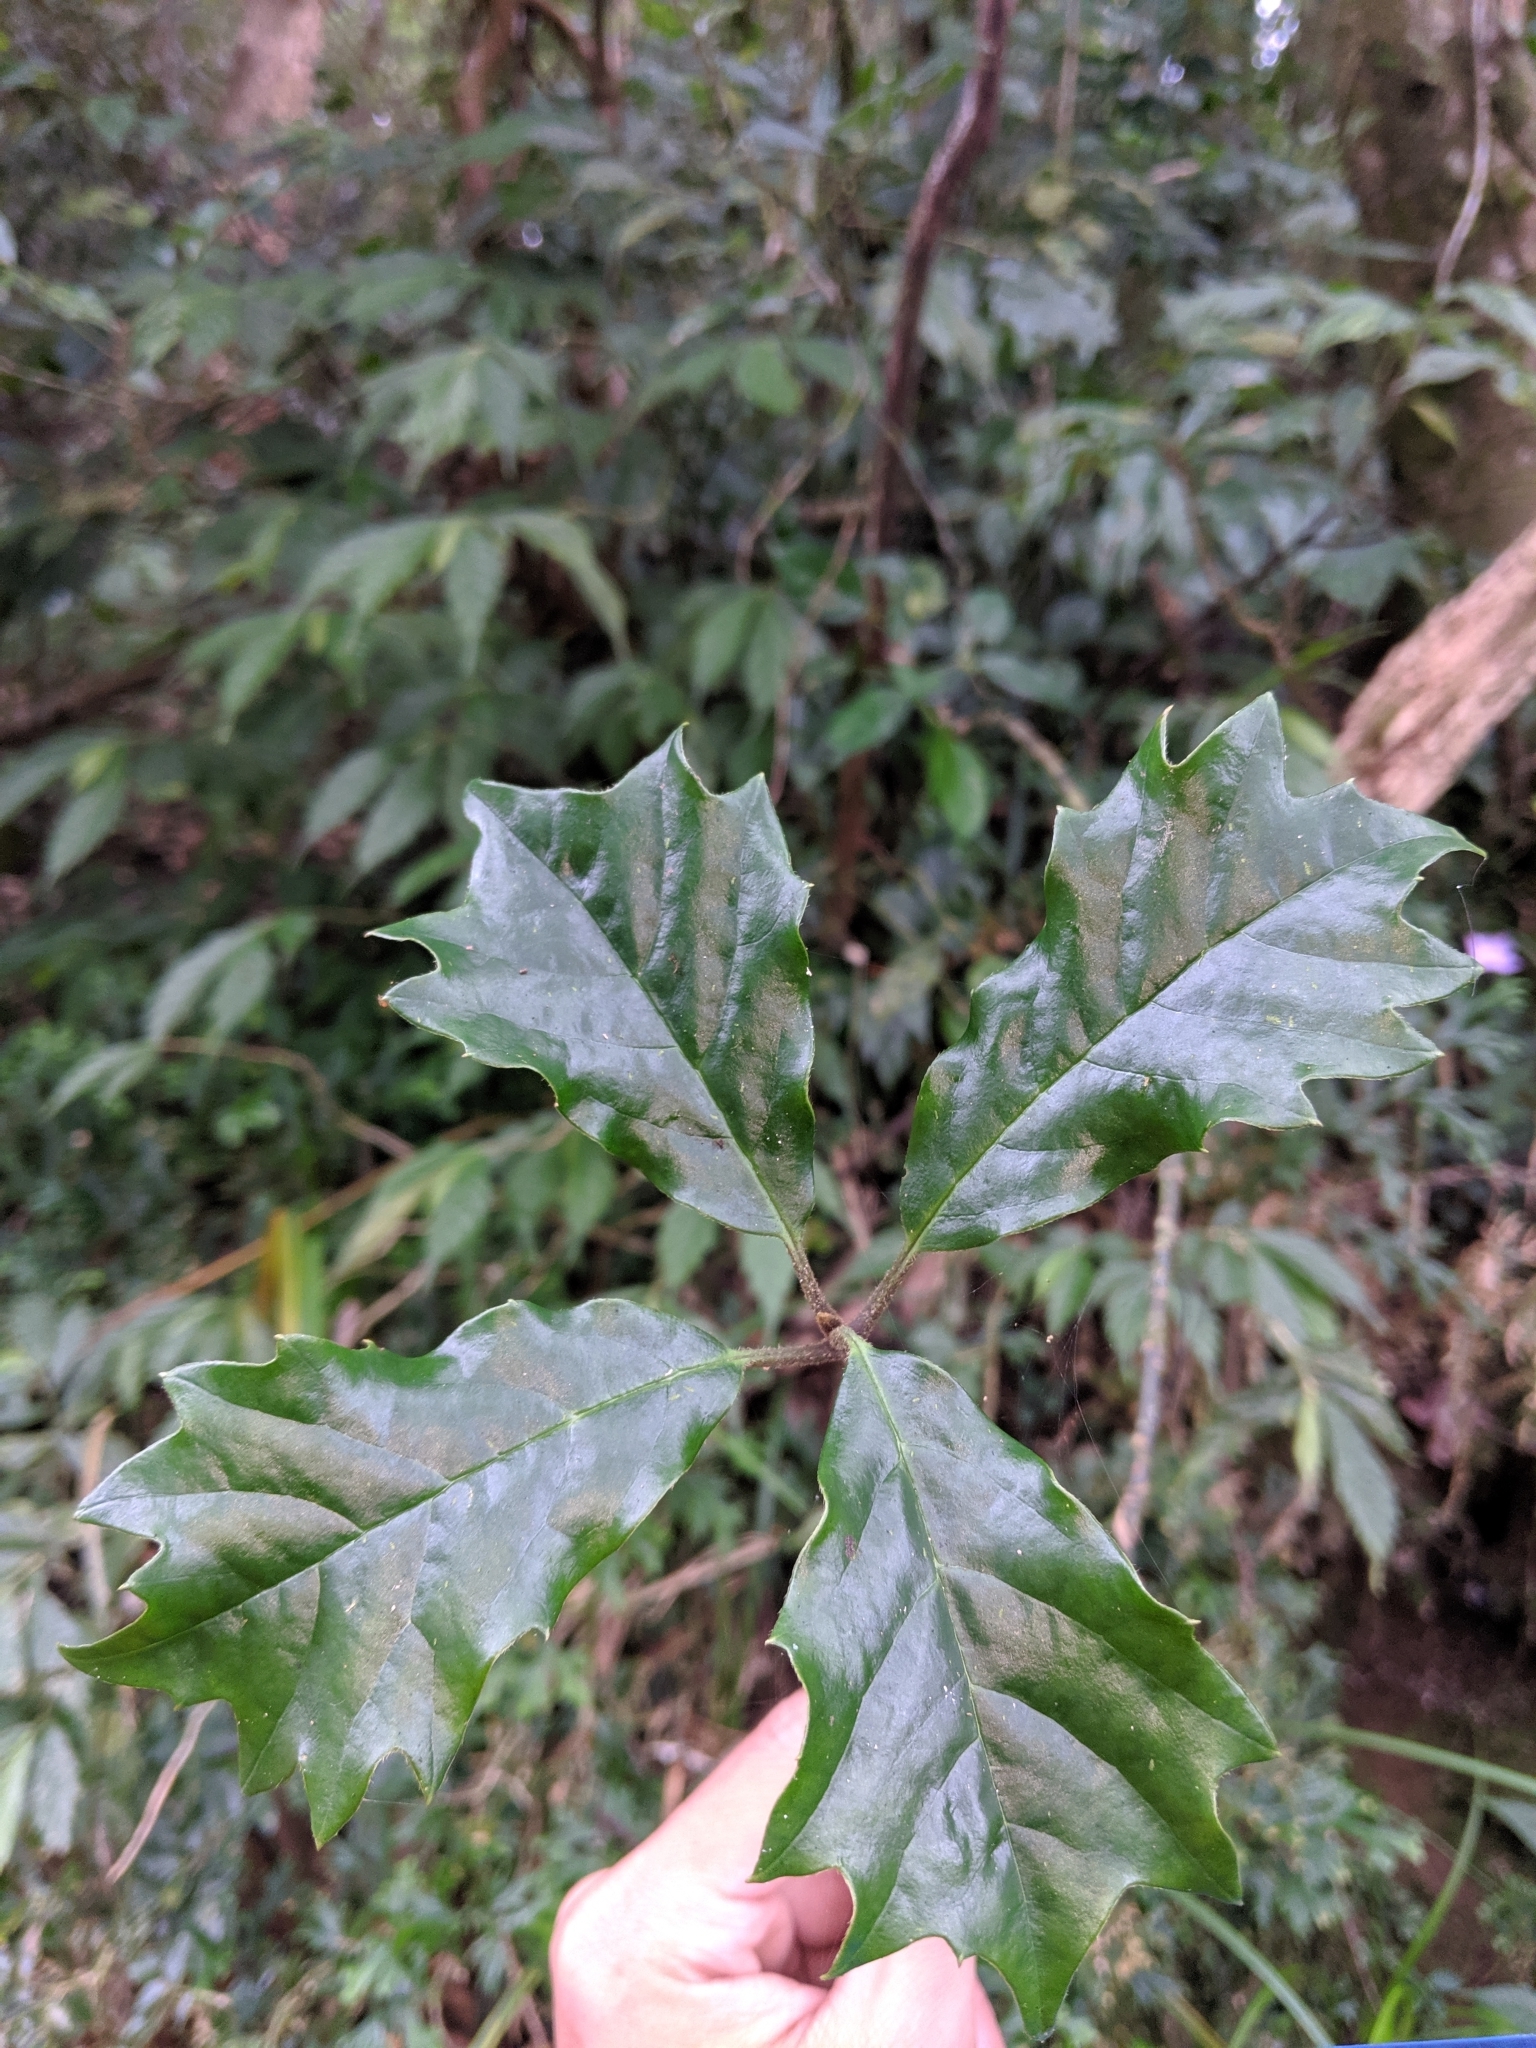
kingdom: Plantae
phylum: Tracheophyta
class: Magnoliopsida
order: Garryales
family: Garryaceae
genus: Aucuba
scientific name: Aucuba chinensis
